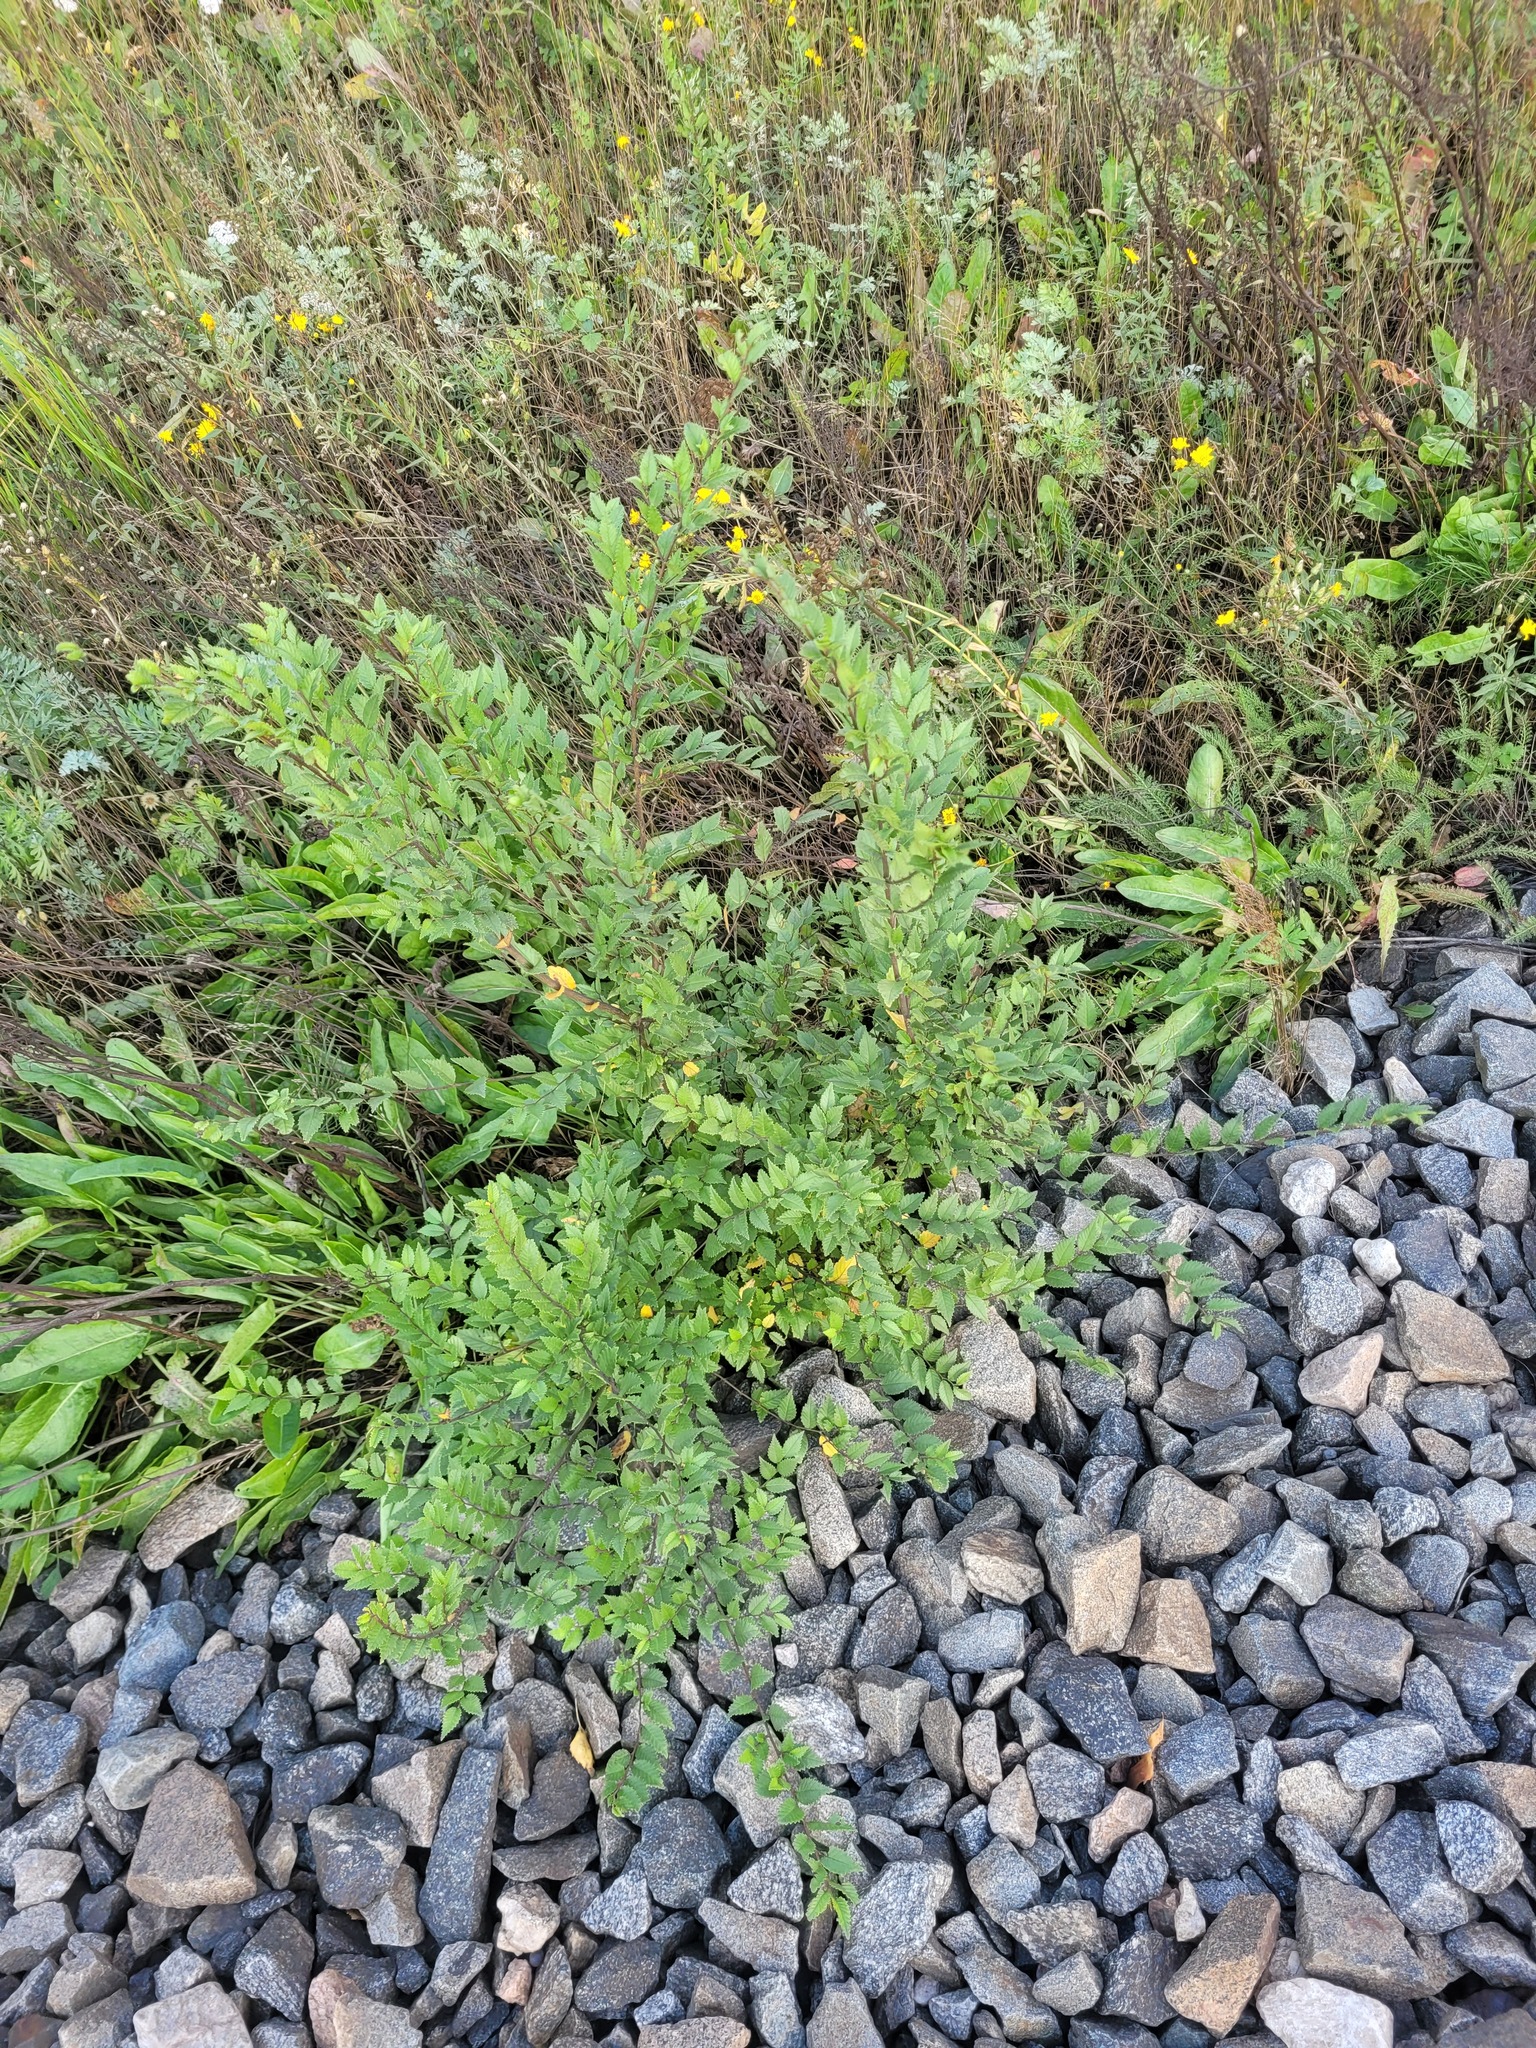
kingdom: Plantae
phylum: Tracheophyta
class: Magnoliopsida
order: Rosales
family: Ulmaceae
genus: Ulmus
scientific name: Ulmus pumila
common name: Siberian elm
